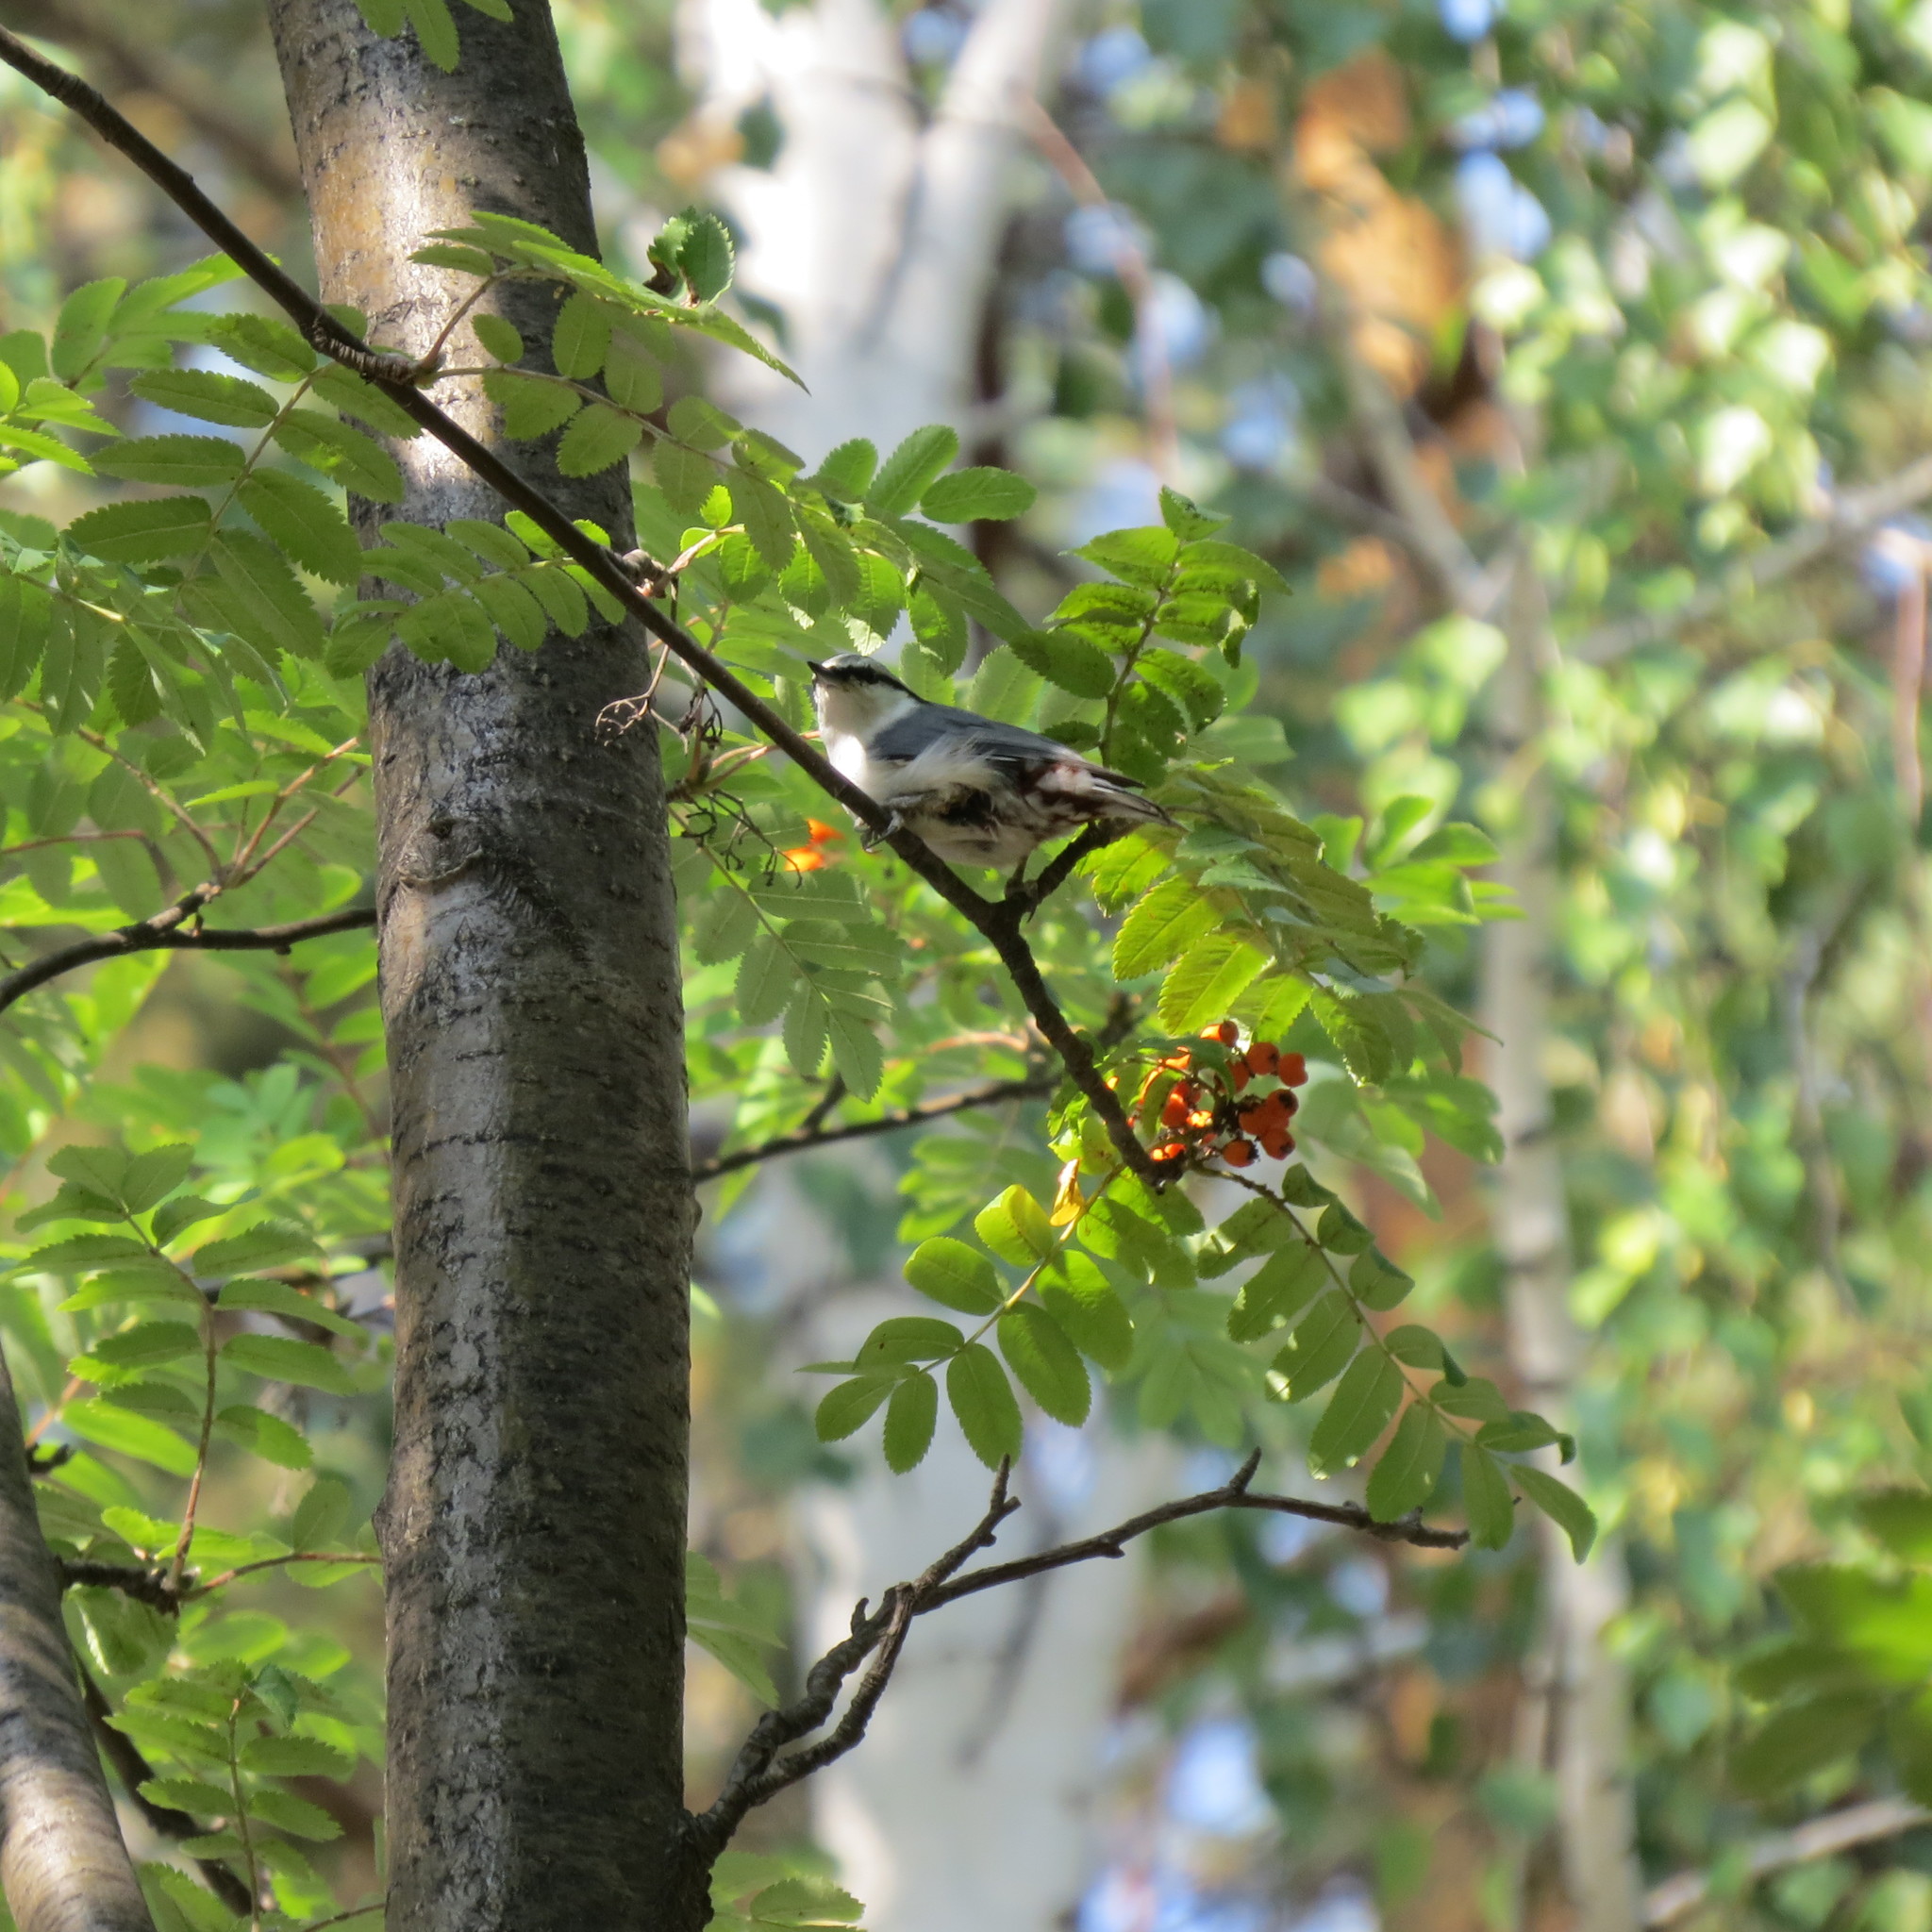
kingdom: Animalia
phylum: Chordata
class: Aves
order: Passeriformes
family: Sittidae
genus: Sitta
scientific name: Sitta europaea
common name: Eurasian nuthatch
